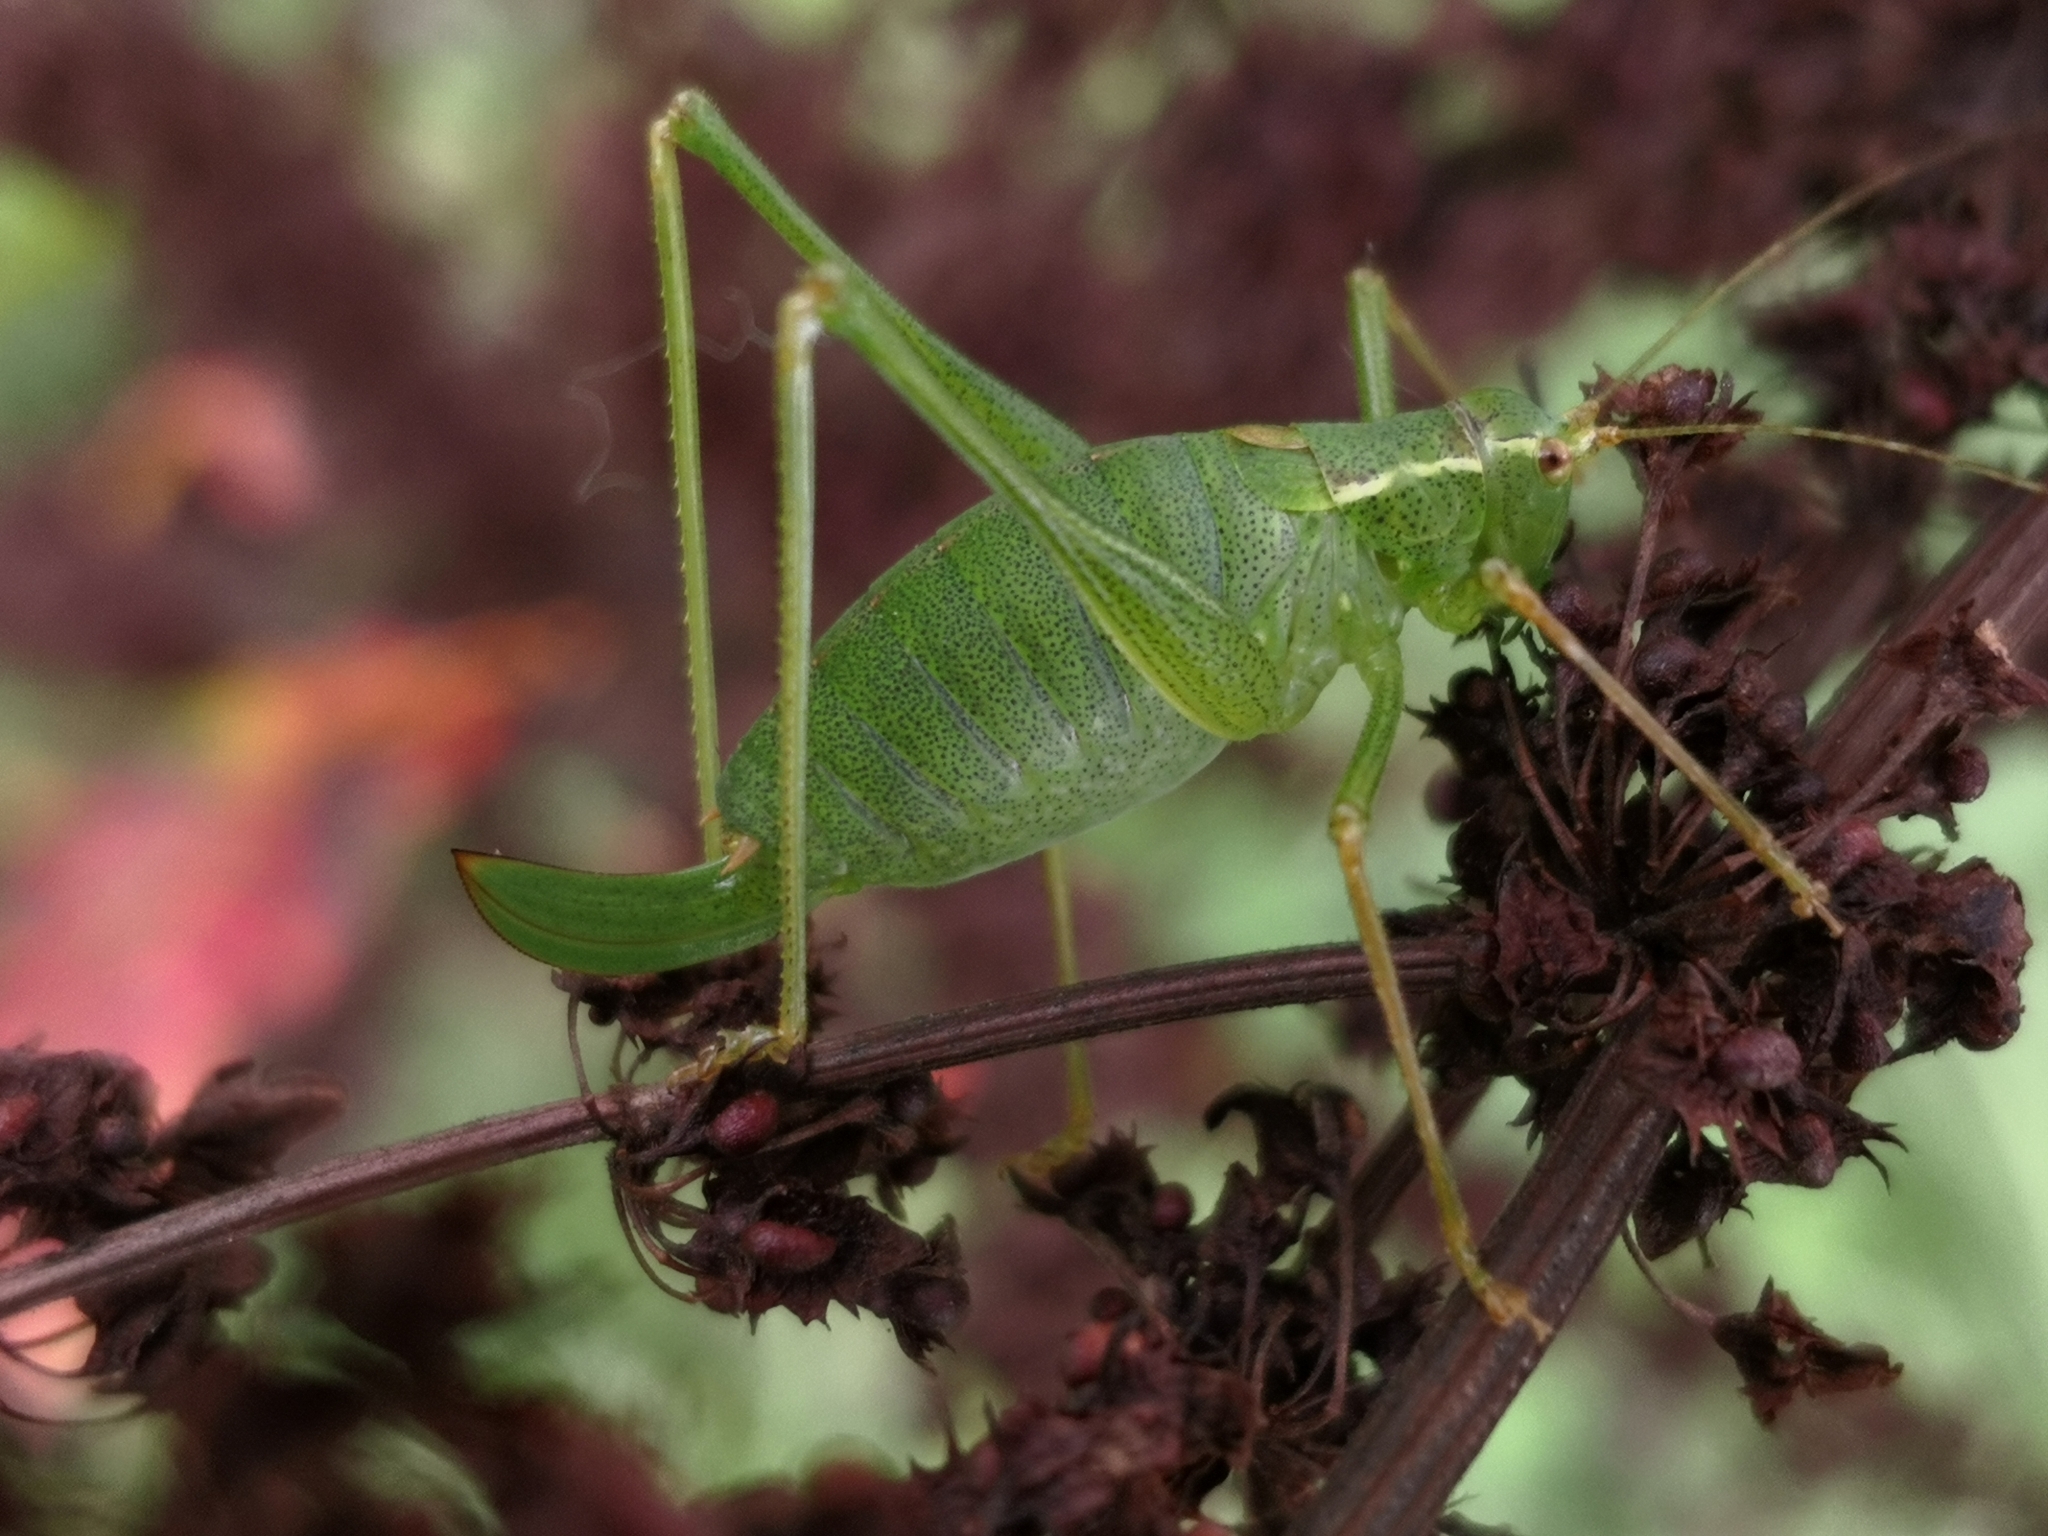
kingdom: Animalia
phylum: Arthropoda
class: Insecta
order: Orthoptera
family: Tettigoniidae
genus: Leptophyes
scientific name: Leptophyes punctatissima
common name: Speckled bush-cricket
